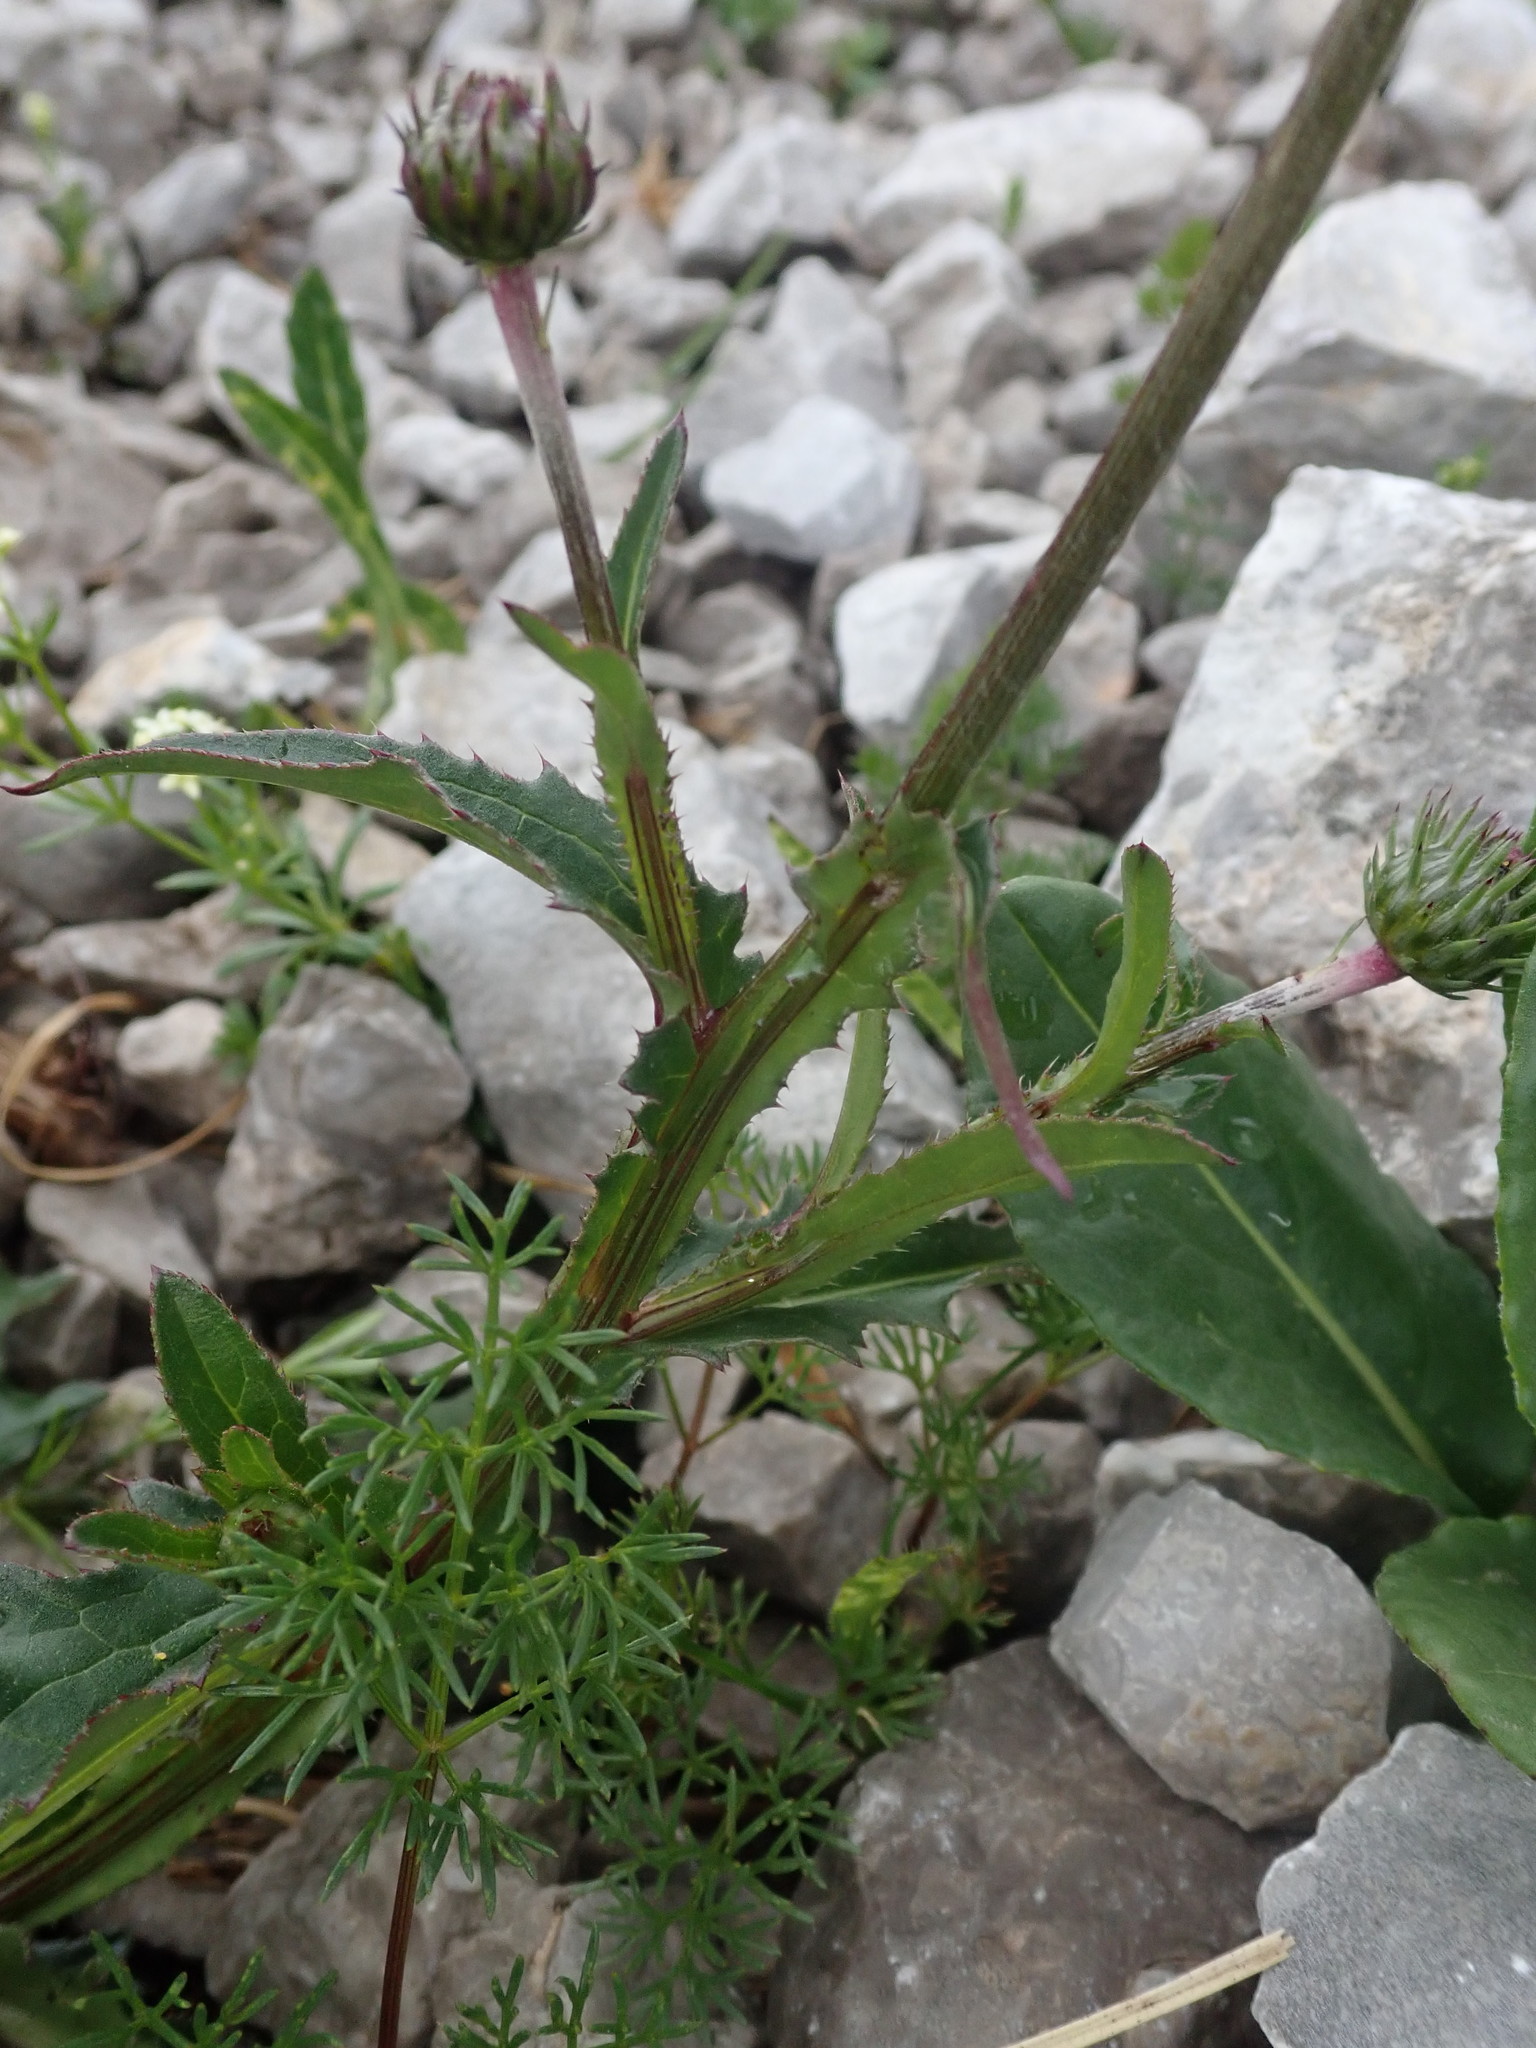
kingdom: Plantae
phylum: Tracheophyta
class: Magnoliopsida
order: Asterales
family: Asteraceae
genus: Carduus
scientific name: Carduus defloratus
